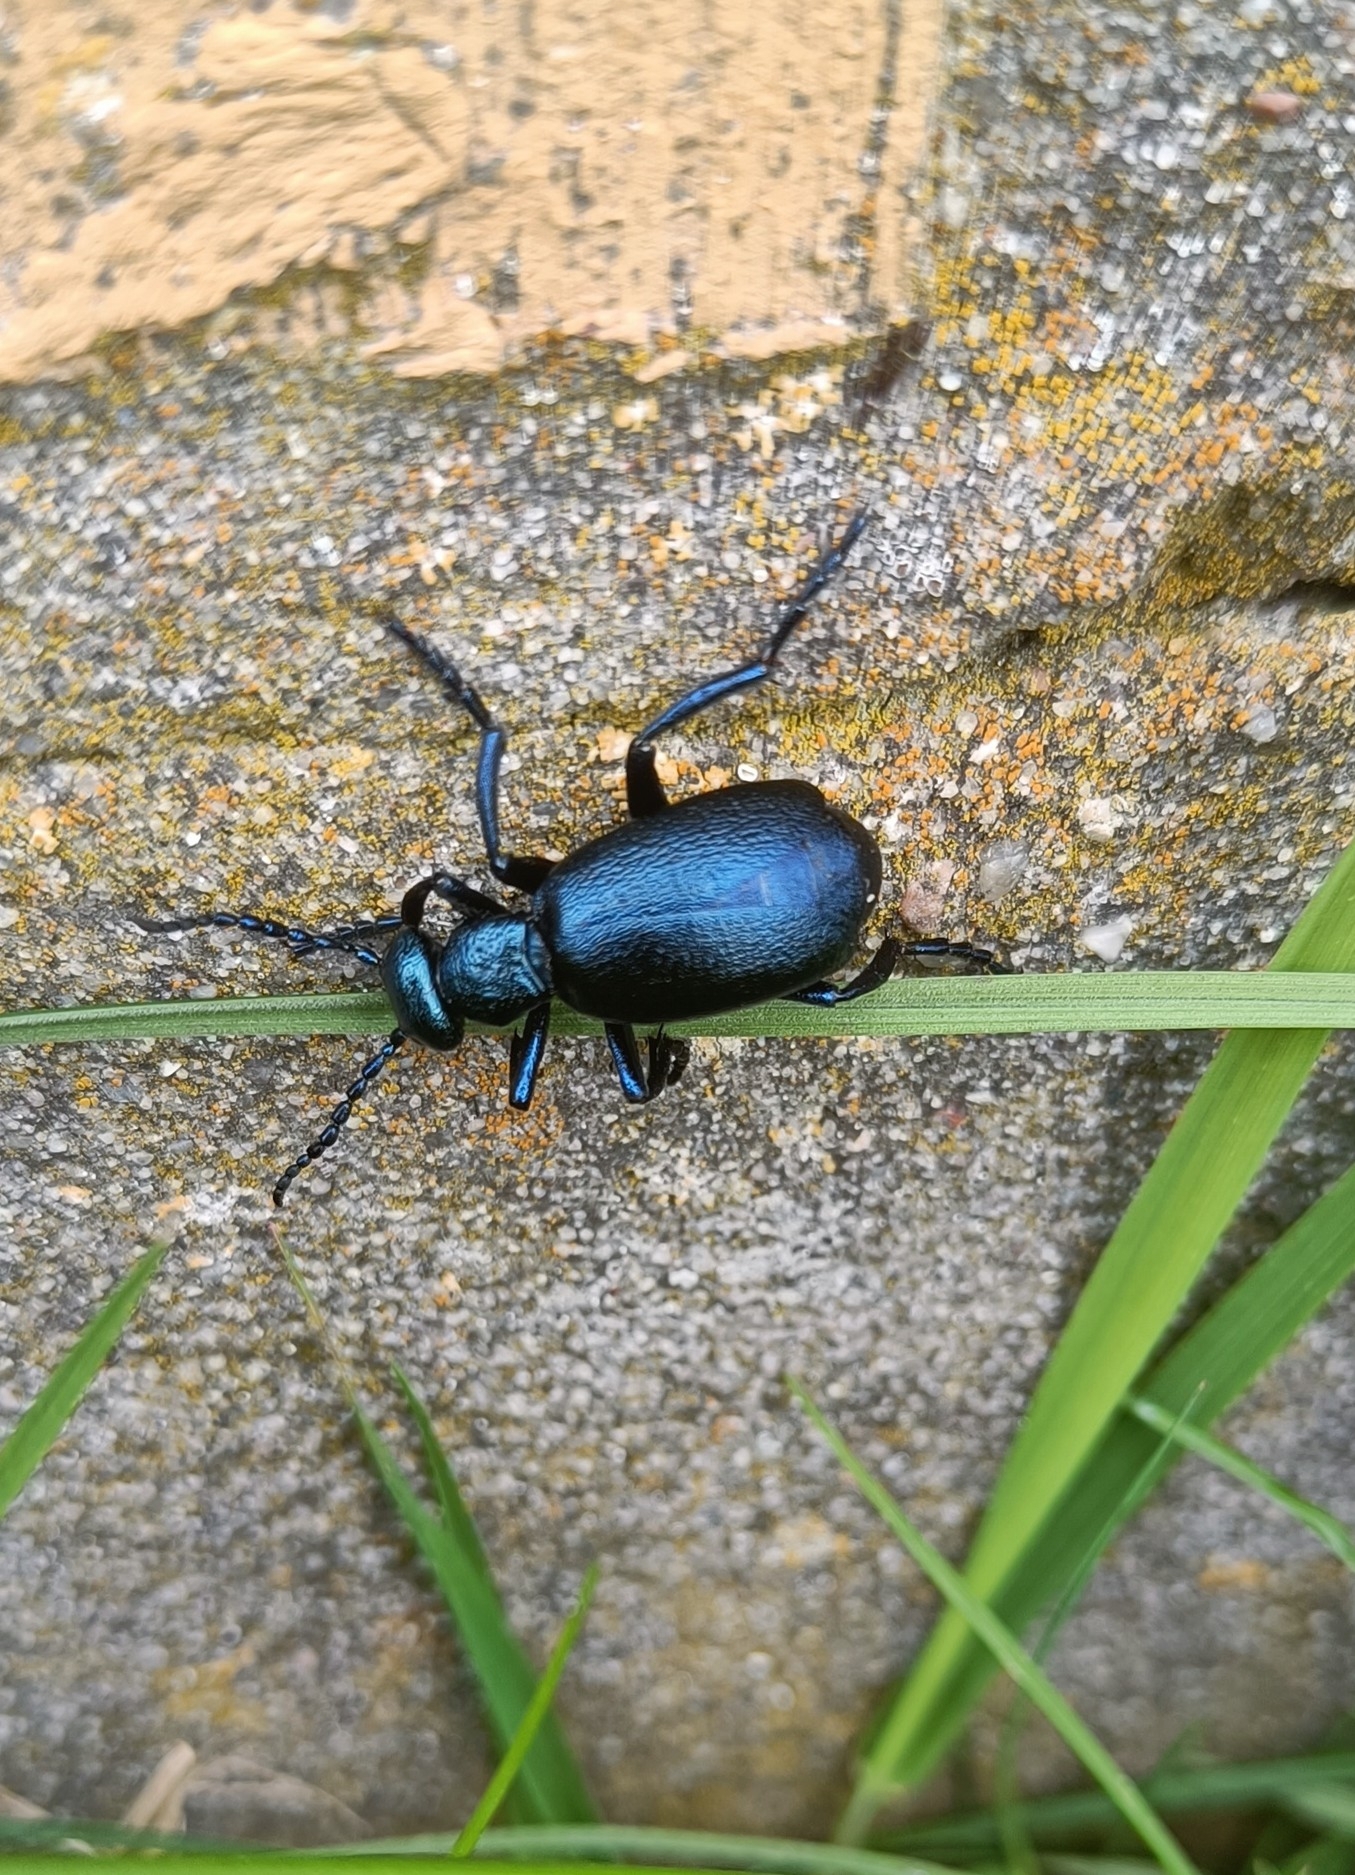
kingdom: Animalia
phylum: Arthropoda
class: Insecta
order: Coleoptera
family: Meloidae
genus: Meloe
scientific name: Meloe violaceus
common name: Violet oil-beetle
